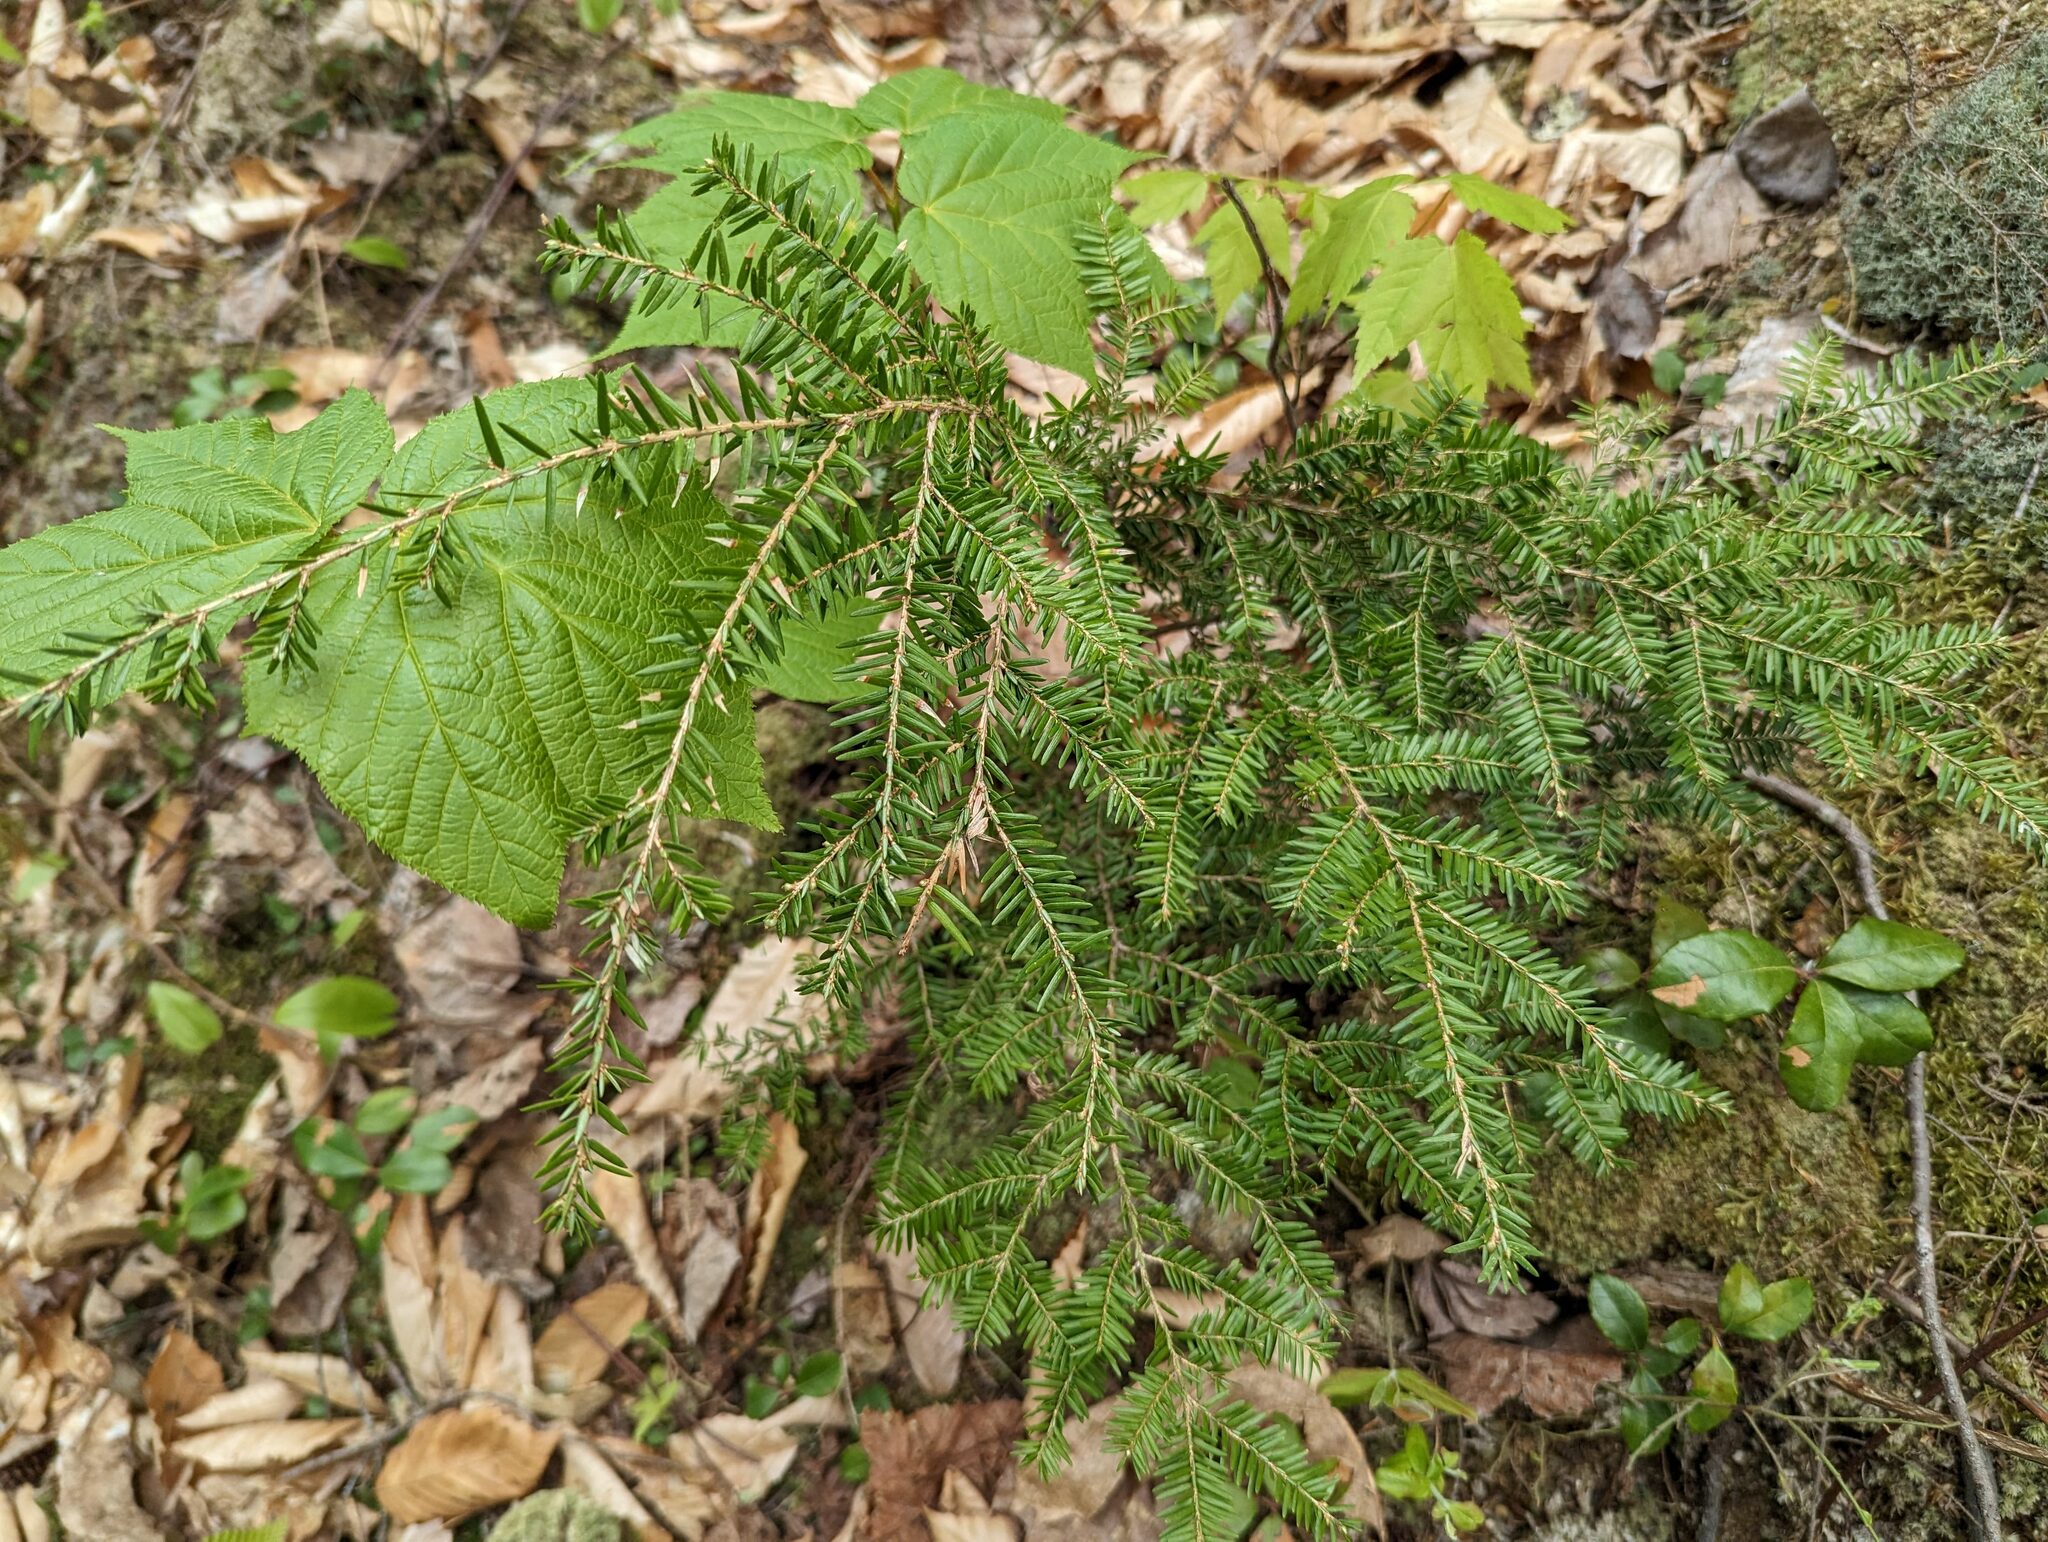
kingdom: Plantae
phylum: Tracheophyta
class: Pinopsida
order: Pinales
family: Pinaceae
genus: Tsuga
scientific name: Tsuga canadensis
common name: Eastern hemlock
